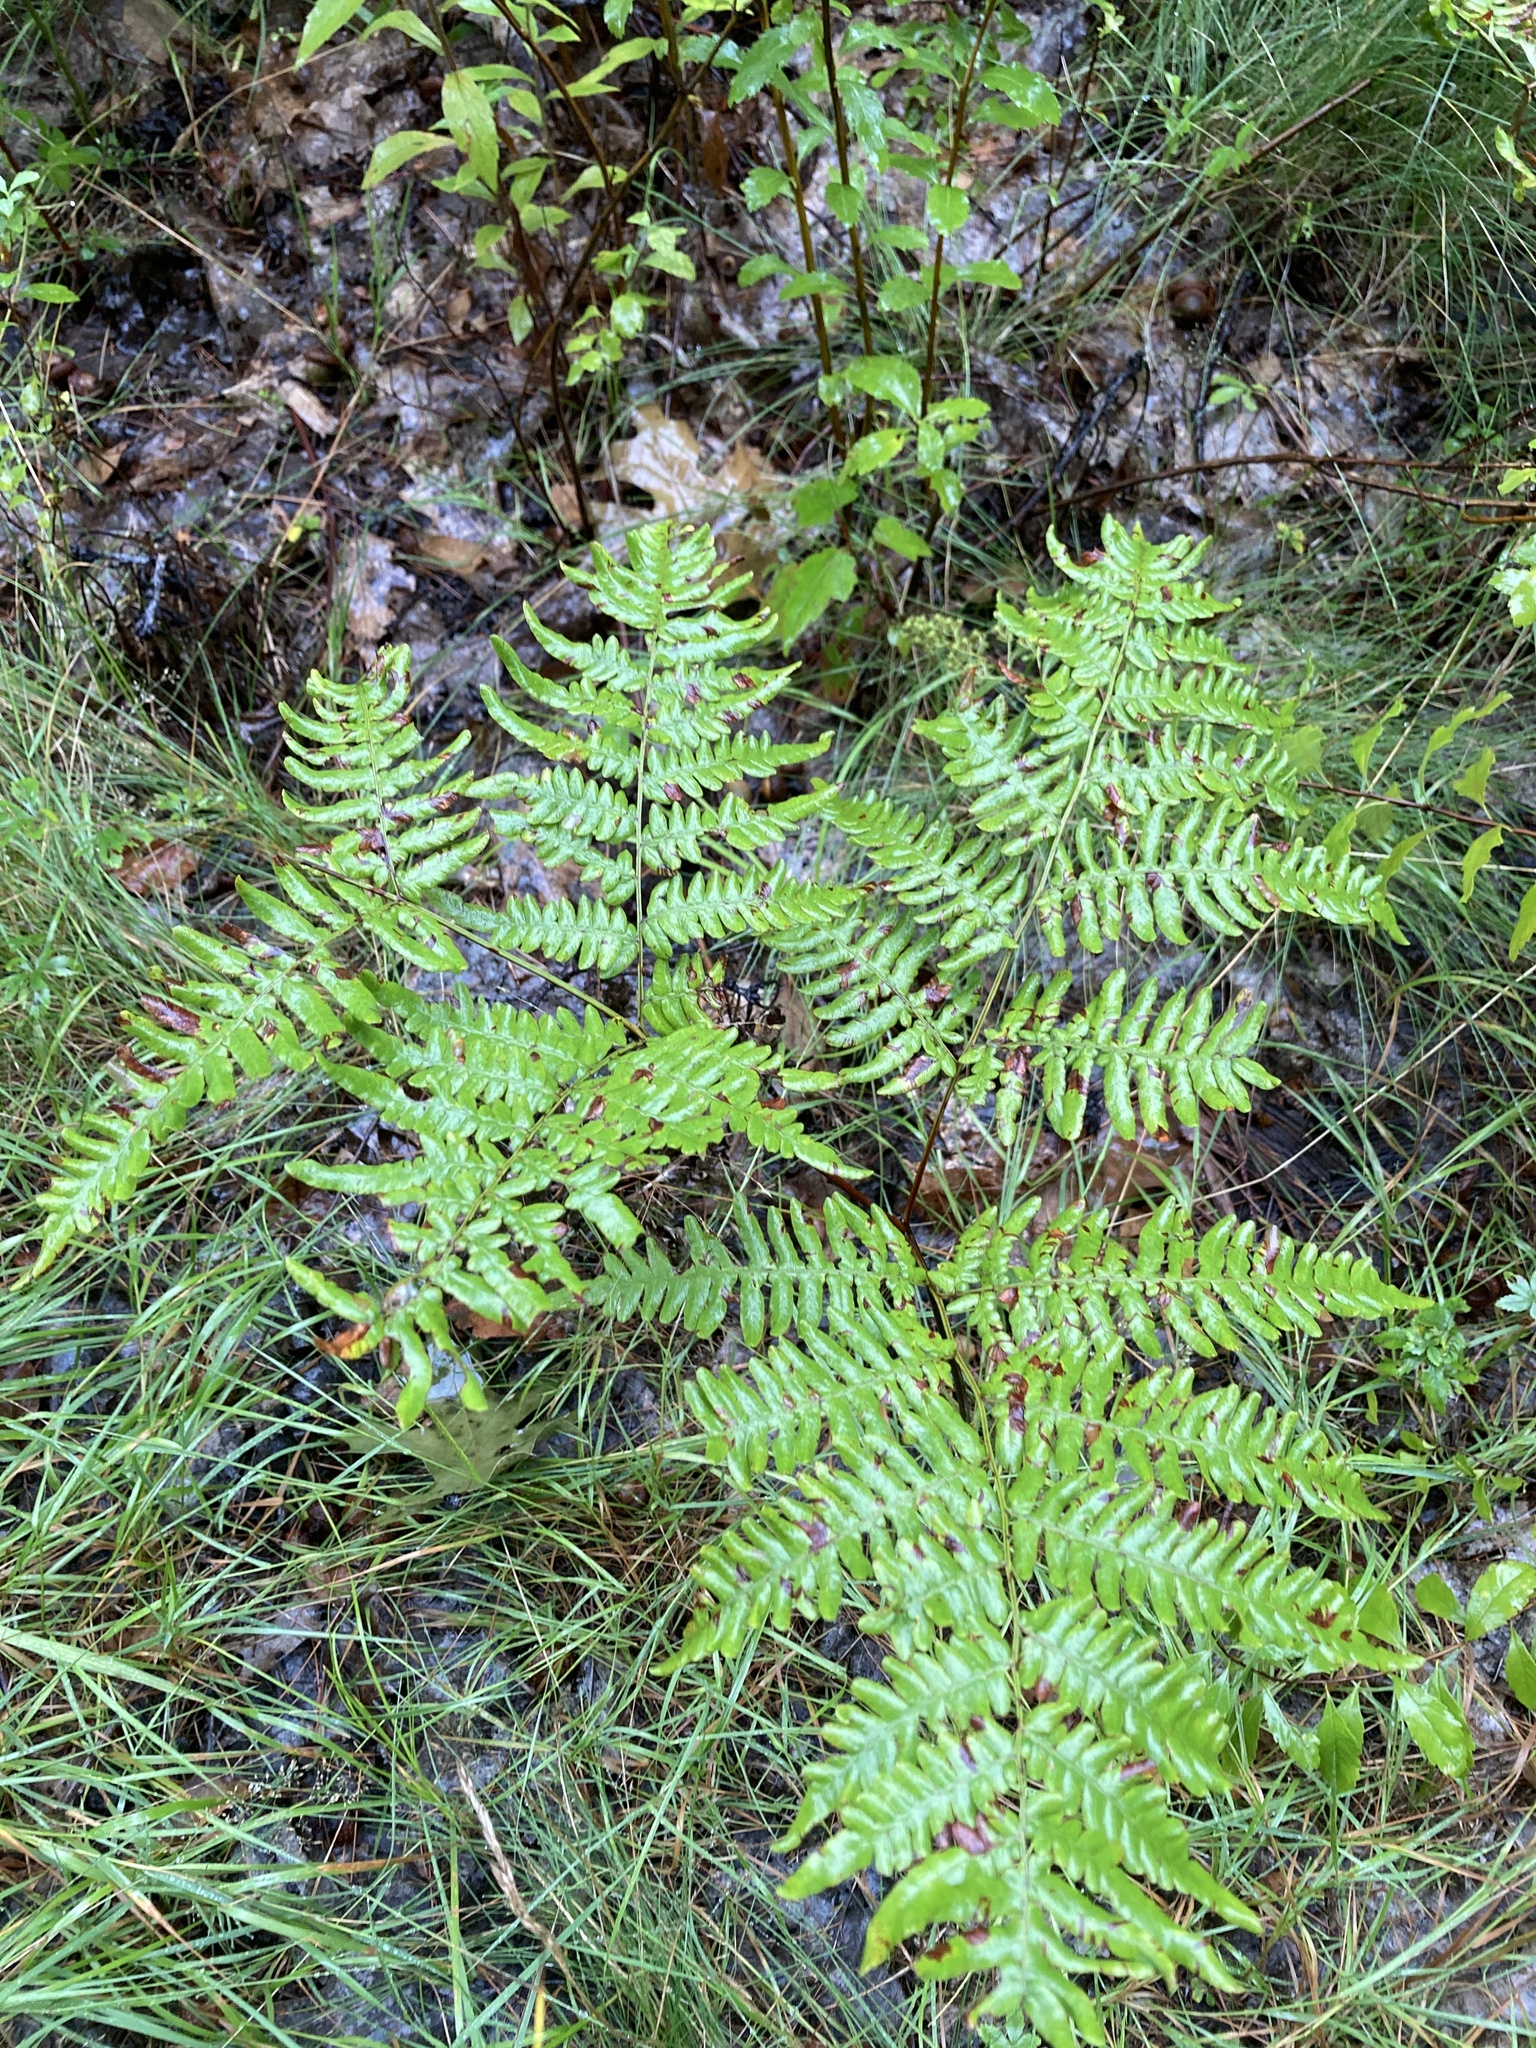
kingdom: Plantae
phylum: Tracheophyta
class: Polypodiopsida
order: Polypodiales
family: Dennstaedtiaceae
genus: Pteridium
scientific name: Pteridium aquilinum
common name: Bracken
